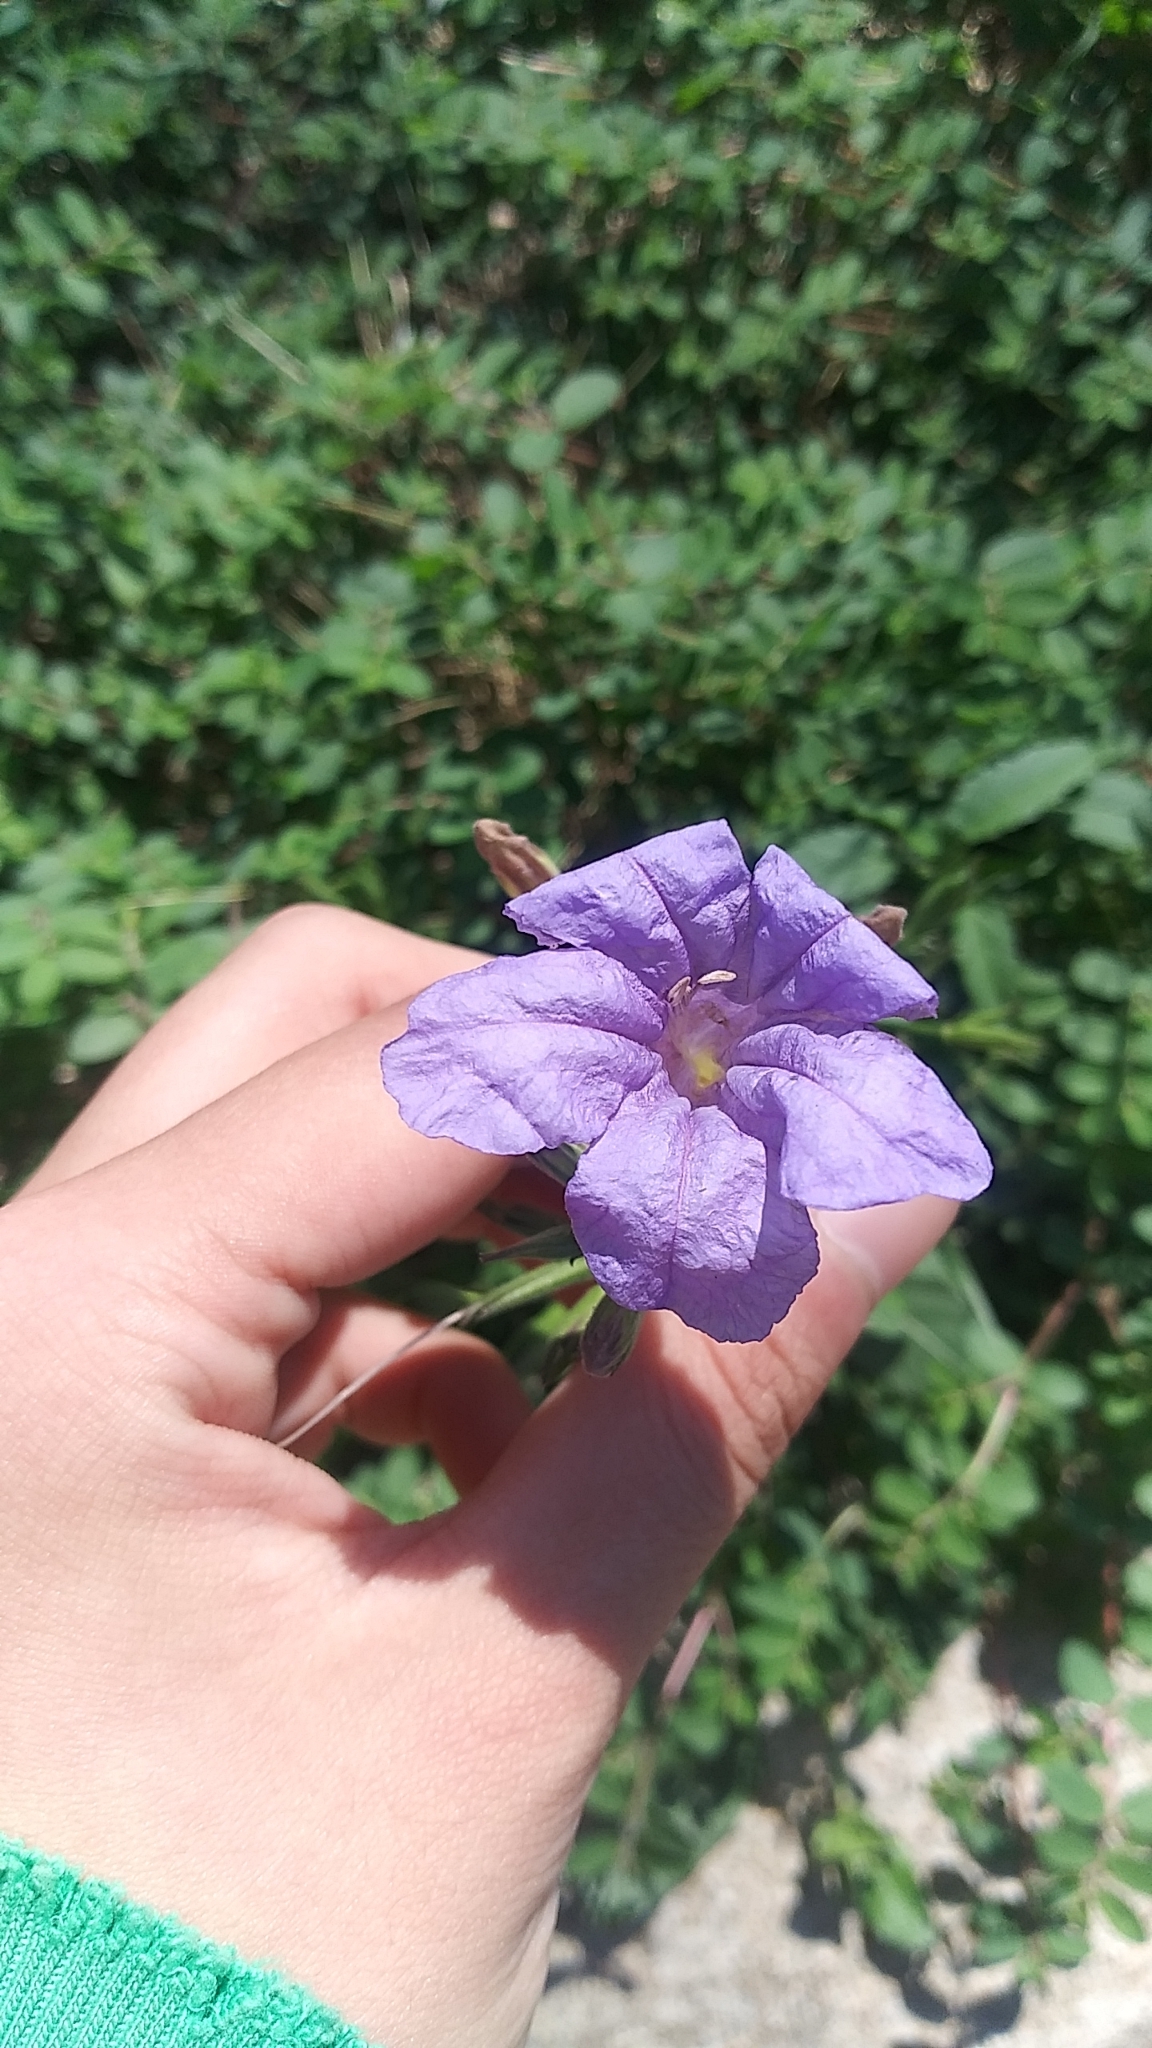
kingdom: Plantae
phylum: Tracheophyta
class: Magnoliopsida
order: Lamiales
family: Acanthaceae
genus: Ruellia
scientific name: Ruellia ciliatiflora
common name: Hairyflower wild petunia
